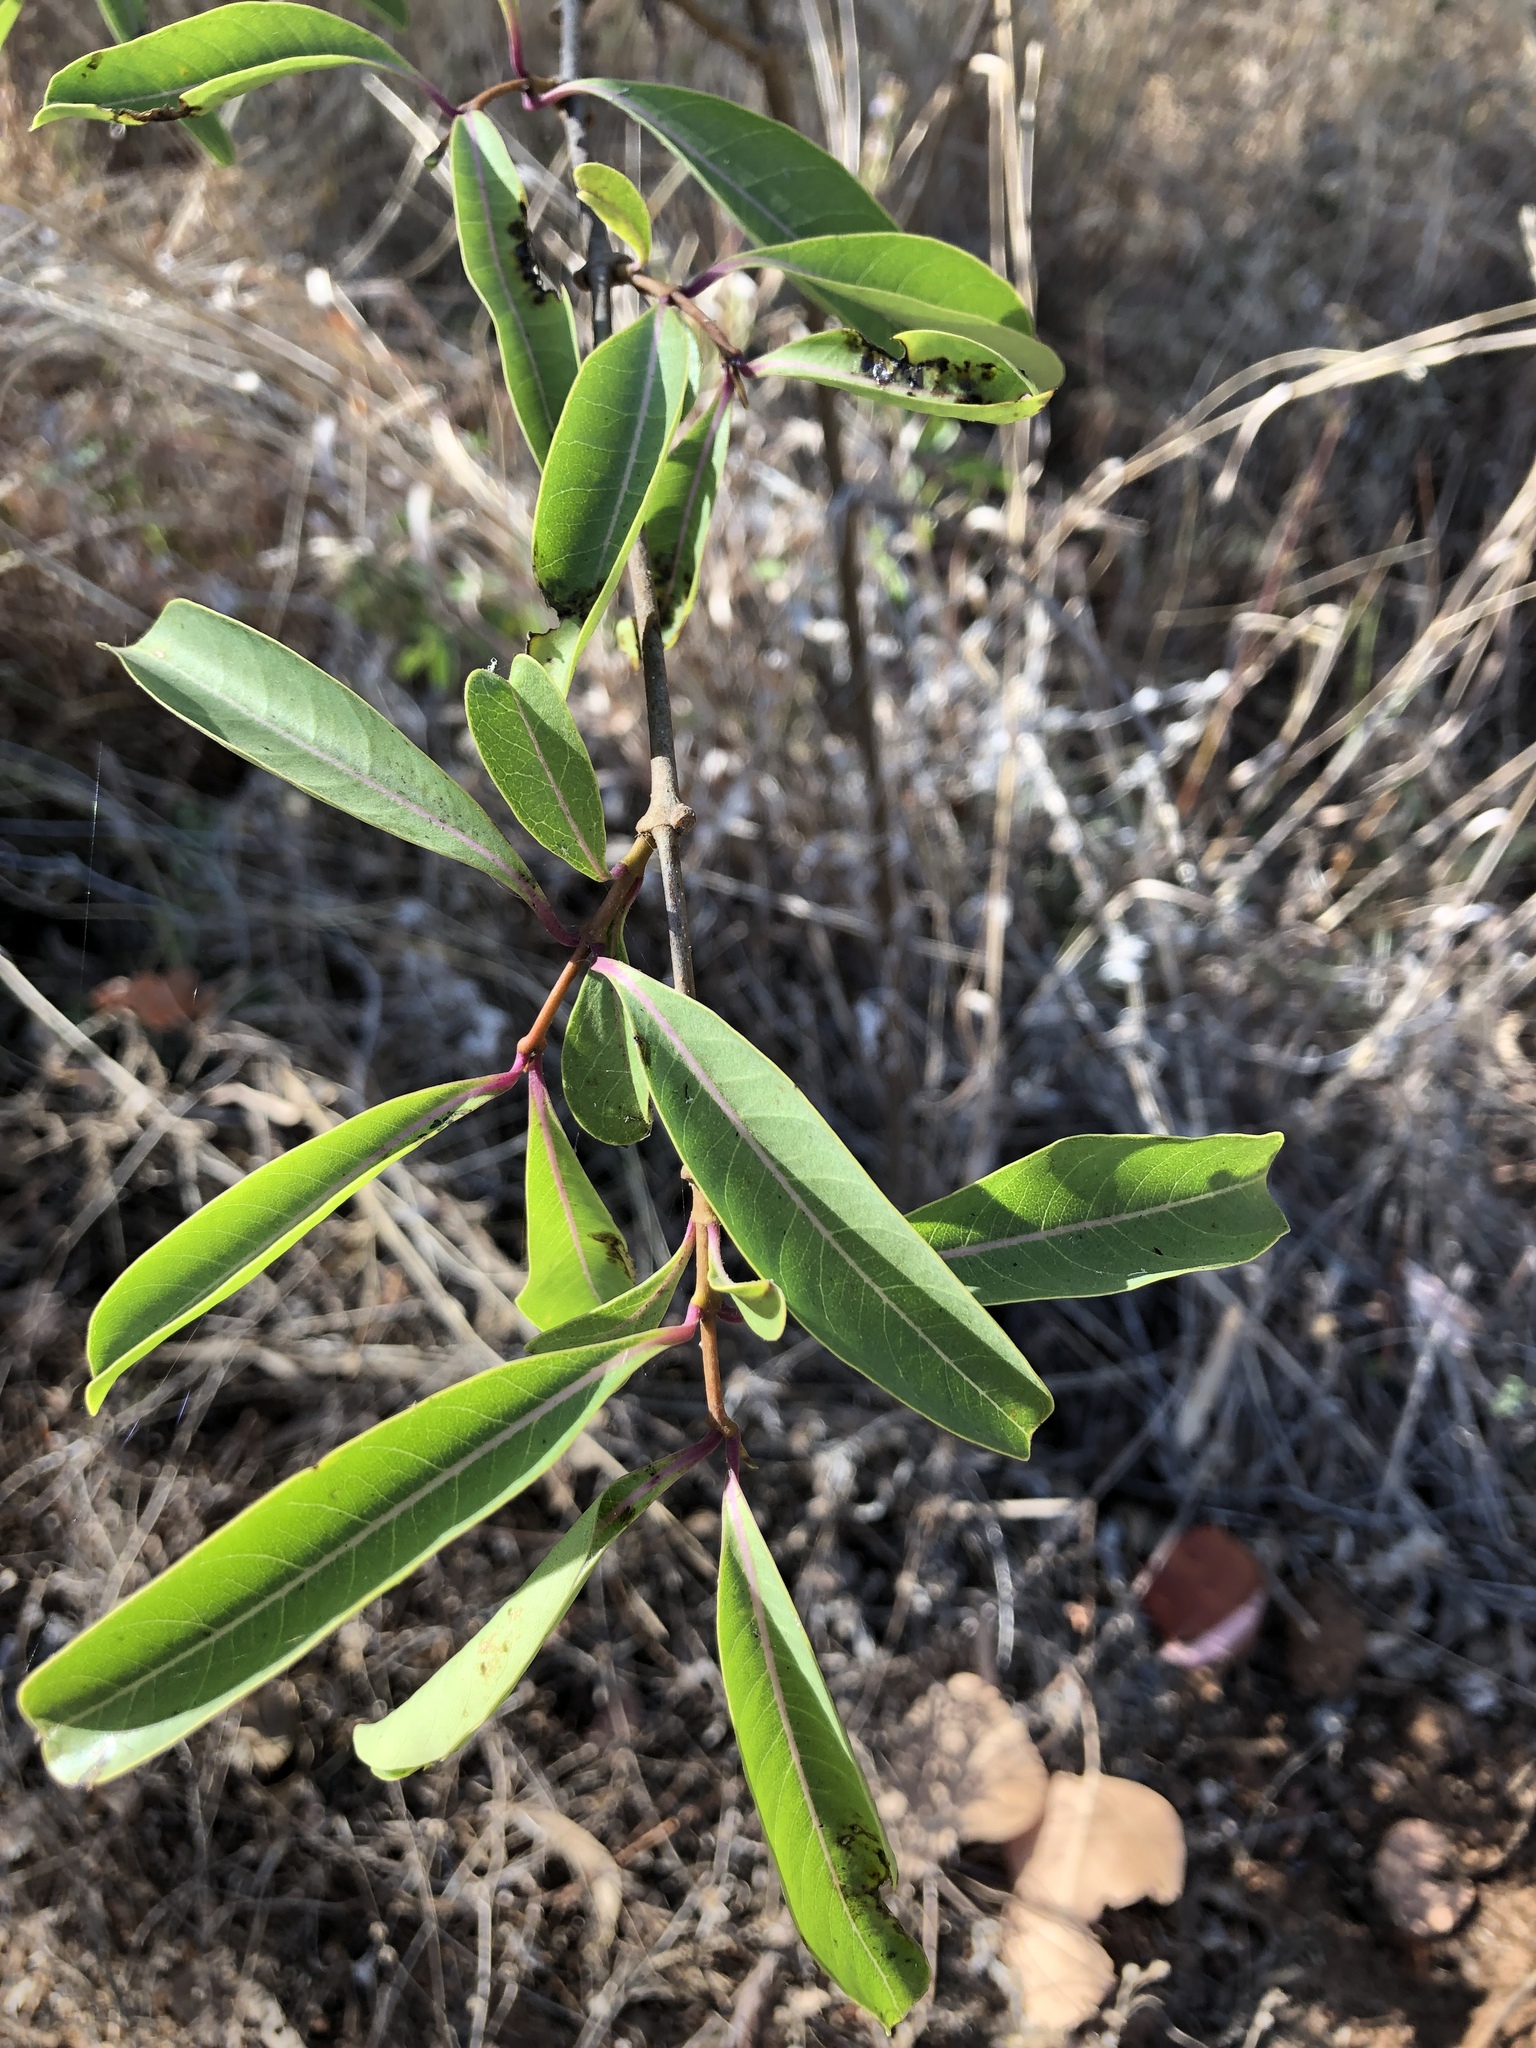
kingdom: Plantae
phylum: Tracheophyta
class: Magnoliopsida
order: Gentianales
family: Apocynaceae
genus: Cryptostegia
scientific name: Cryptostegia grandiflora
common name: Palay rubbervine
